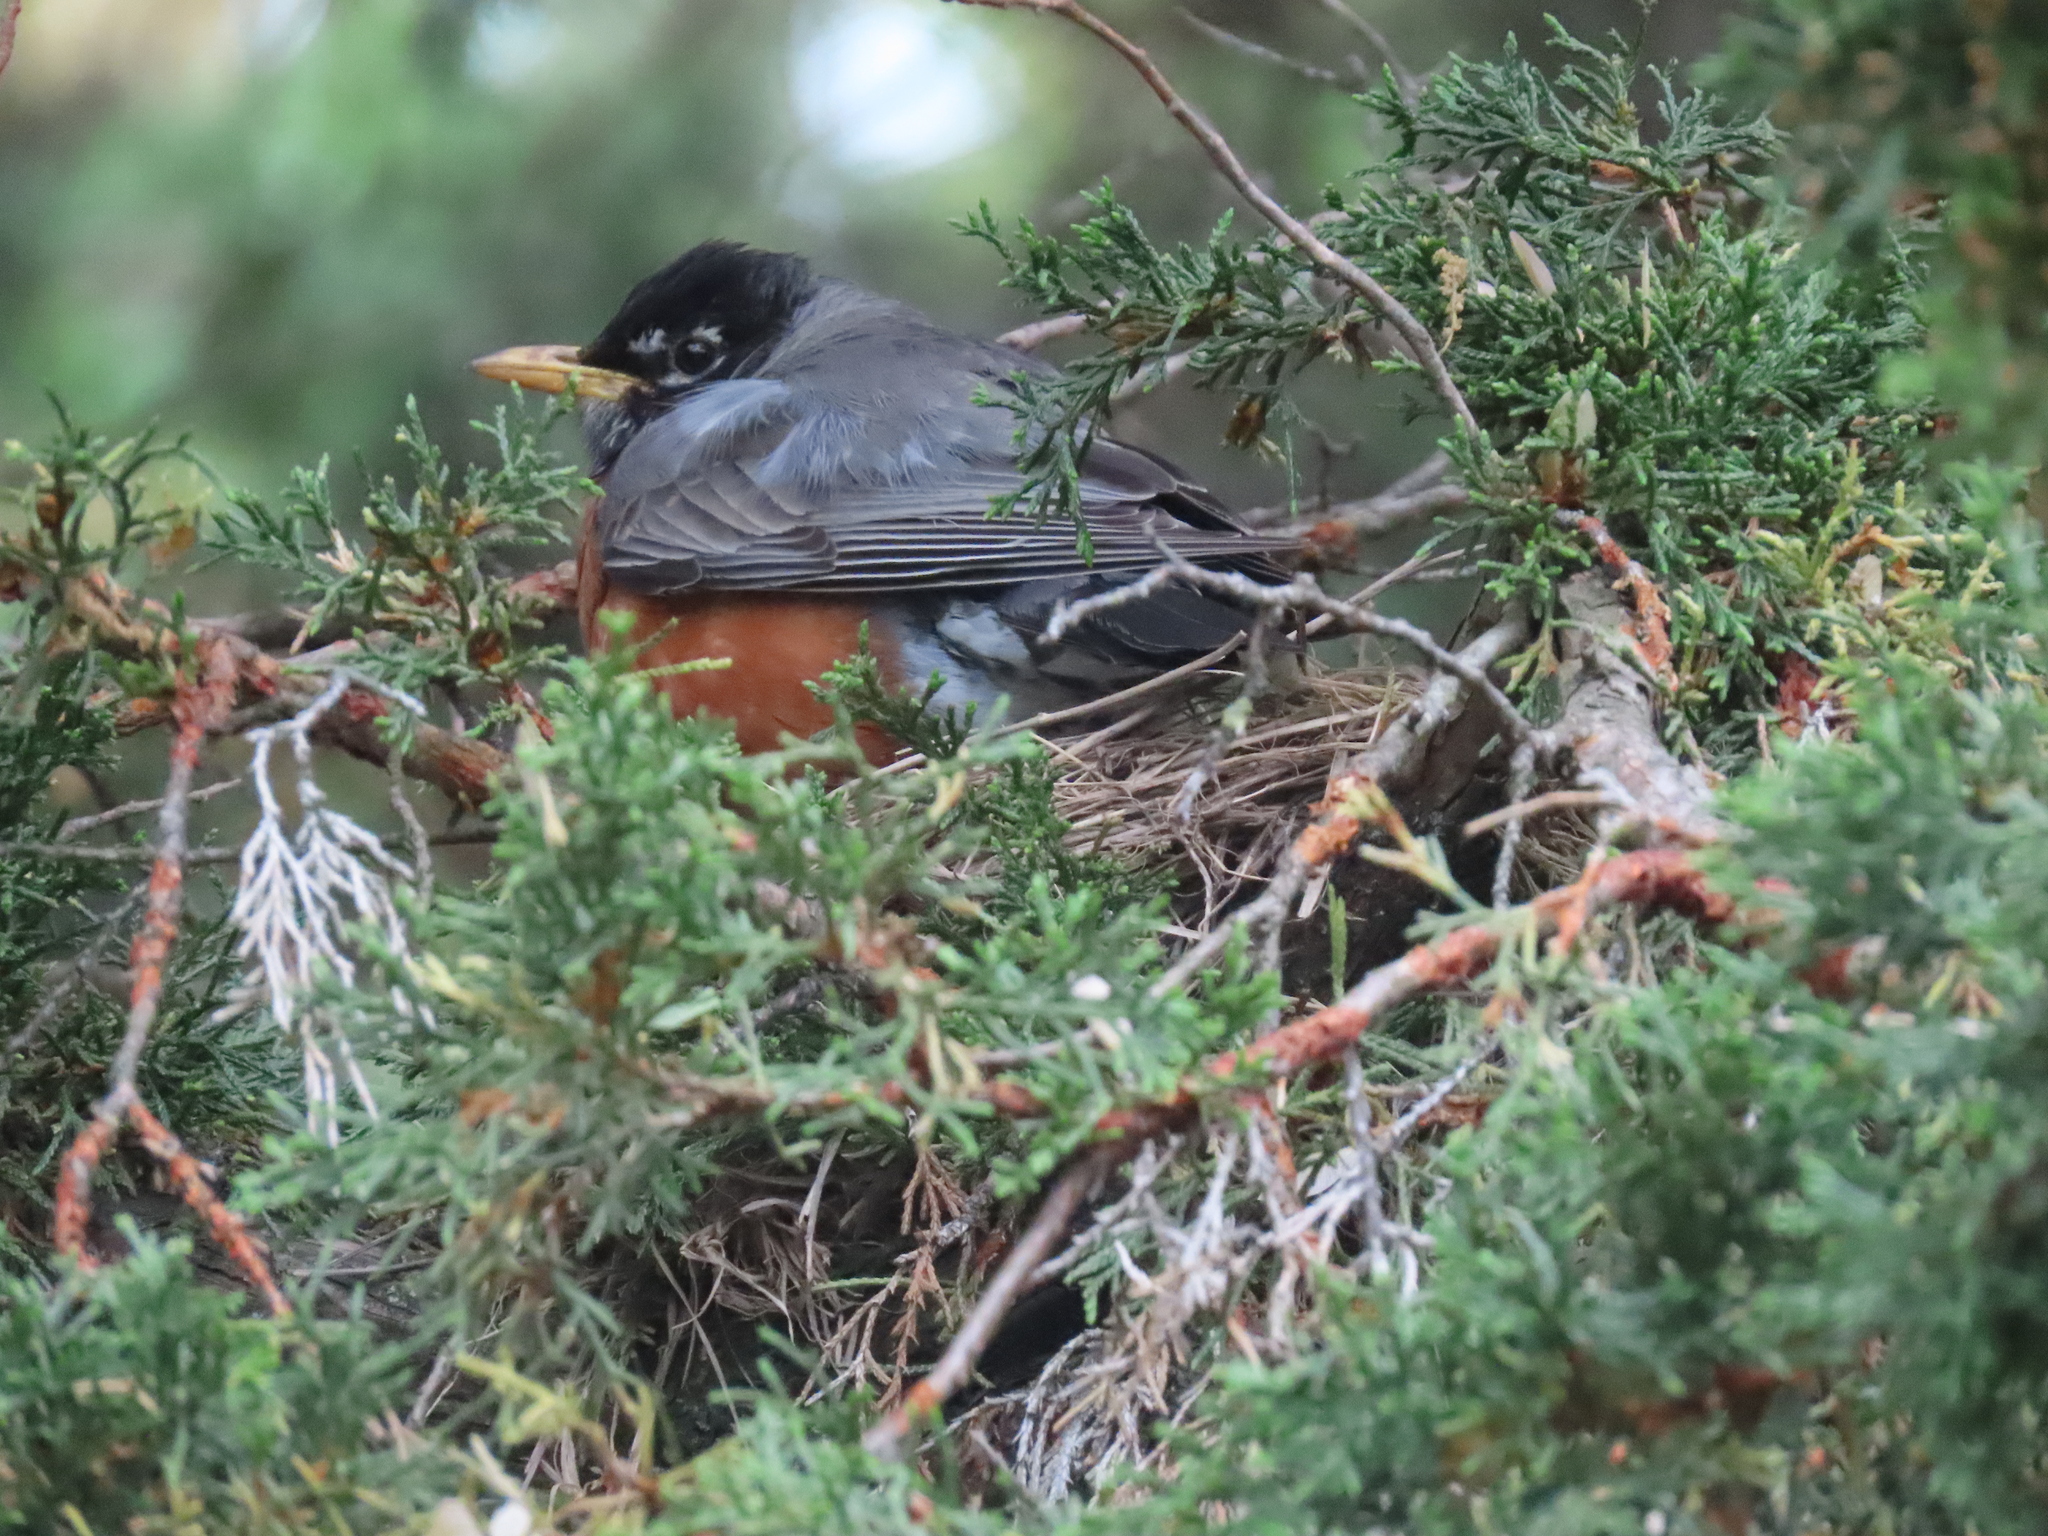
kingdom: Animalia
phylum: Chordata
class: Aves
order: Passeriformes
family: Turdidae
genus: Turdus
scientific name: Turdus migratorius
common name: American robin
